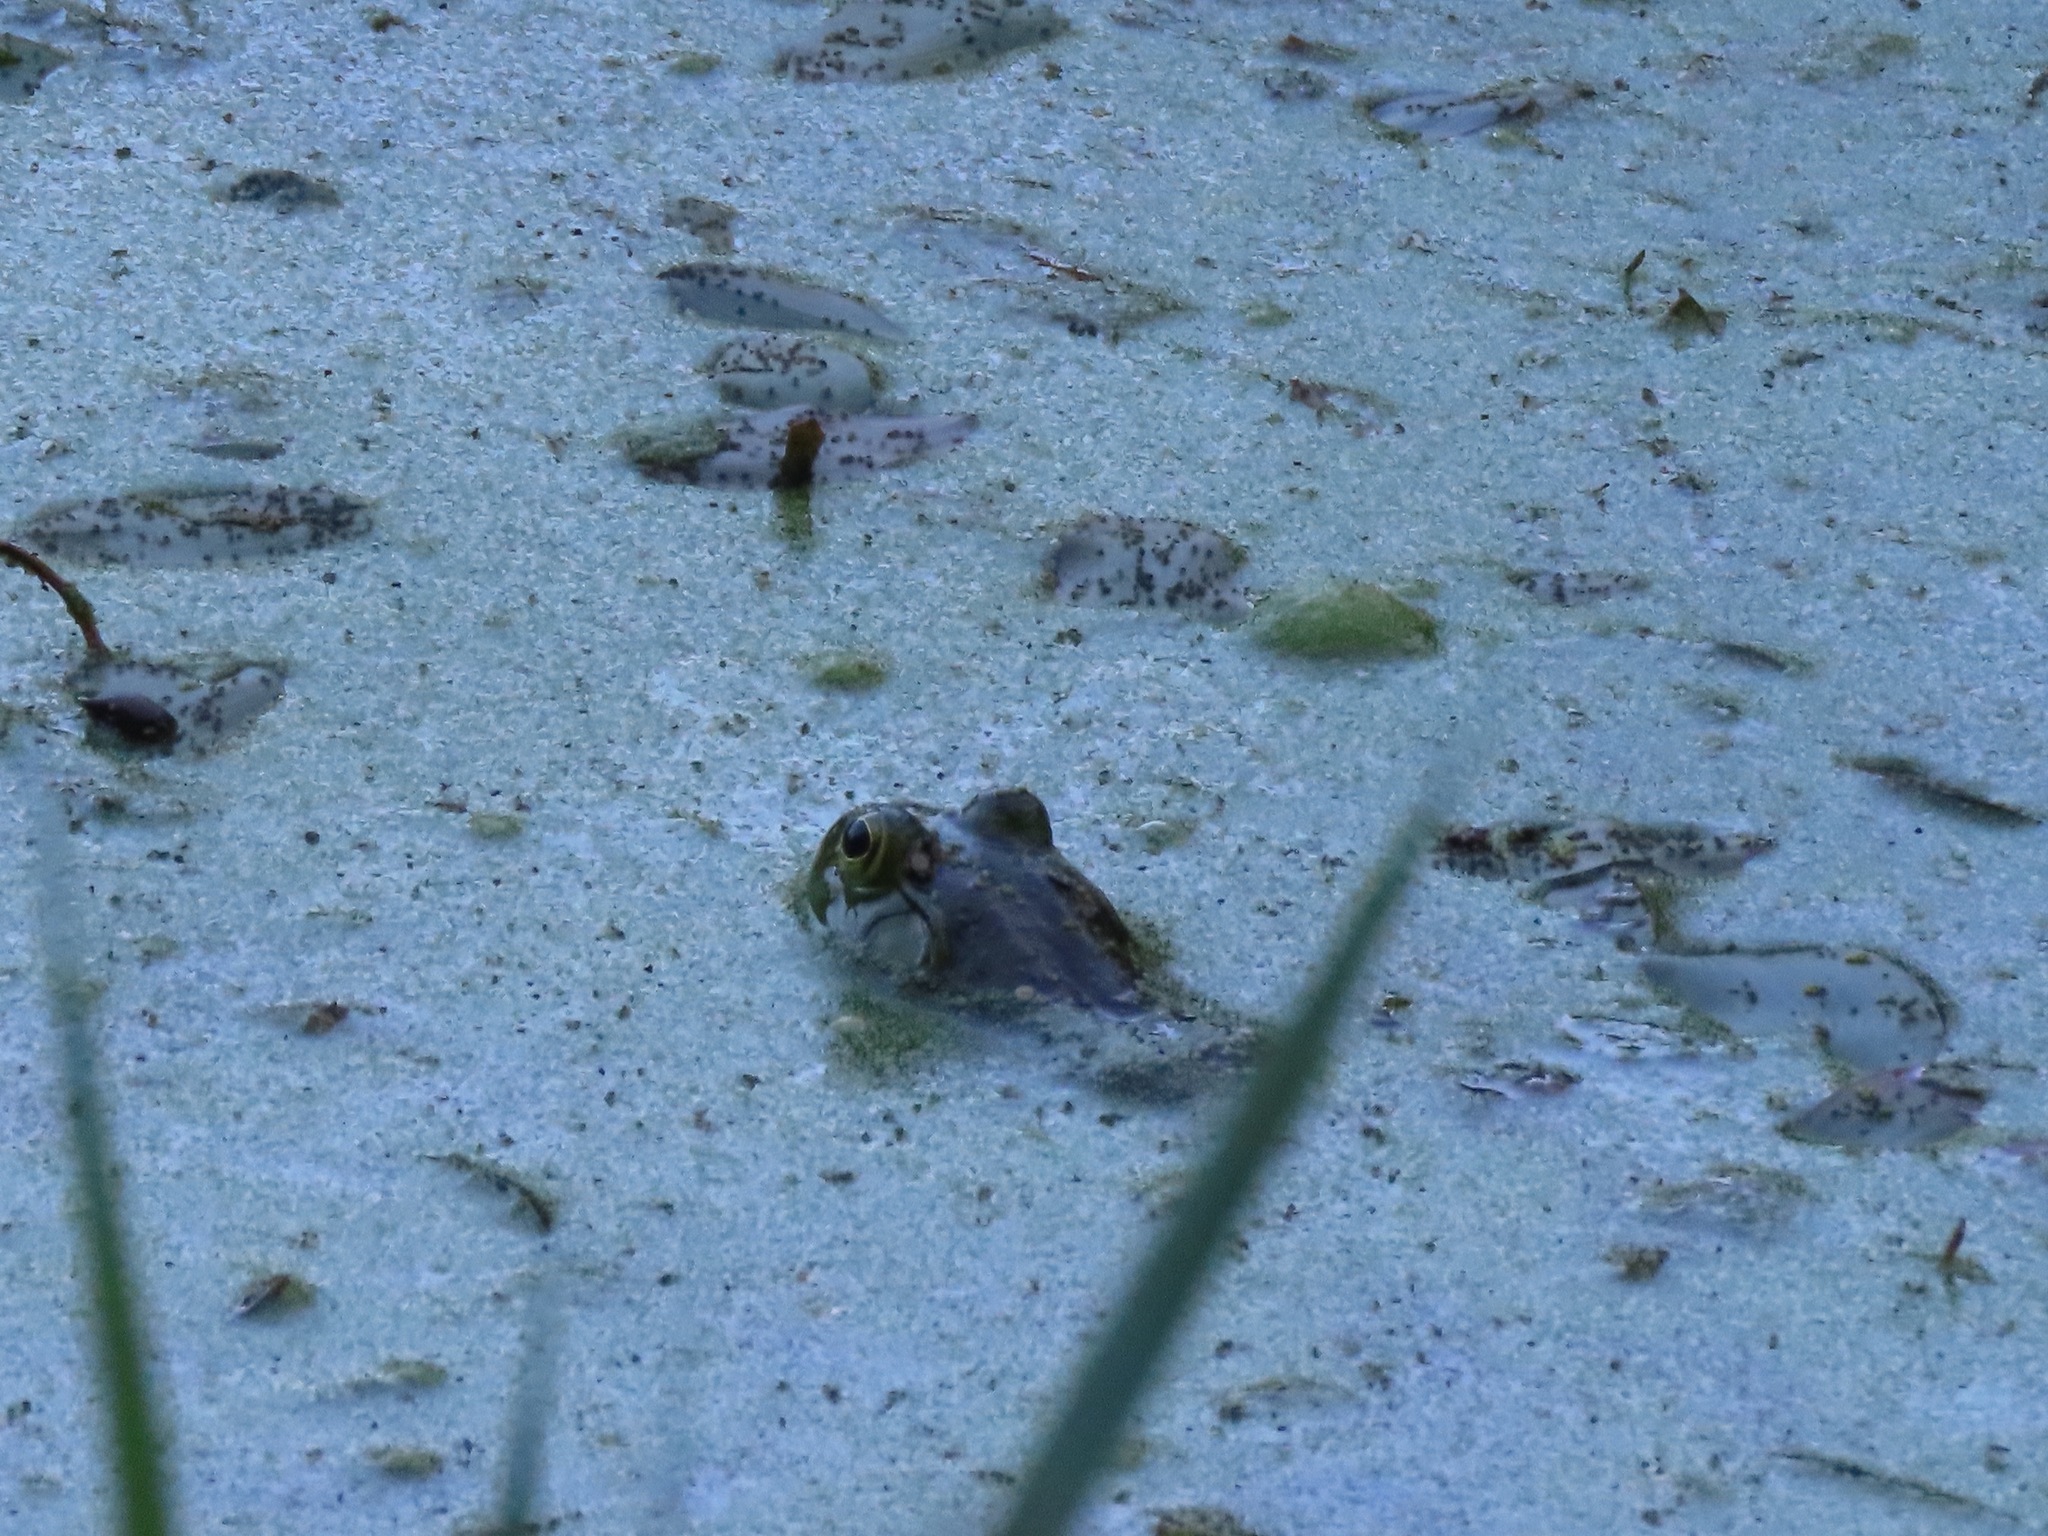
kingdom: Animalia
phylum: Chordata
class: Amphibia
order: Anura
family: Ranidae
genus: Lithobates
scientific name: Lithobates catesbeianus
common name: American bullfrog
